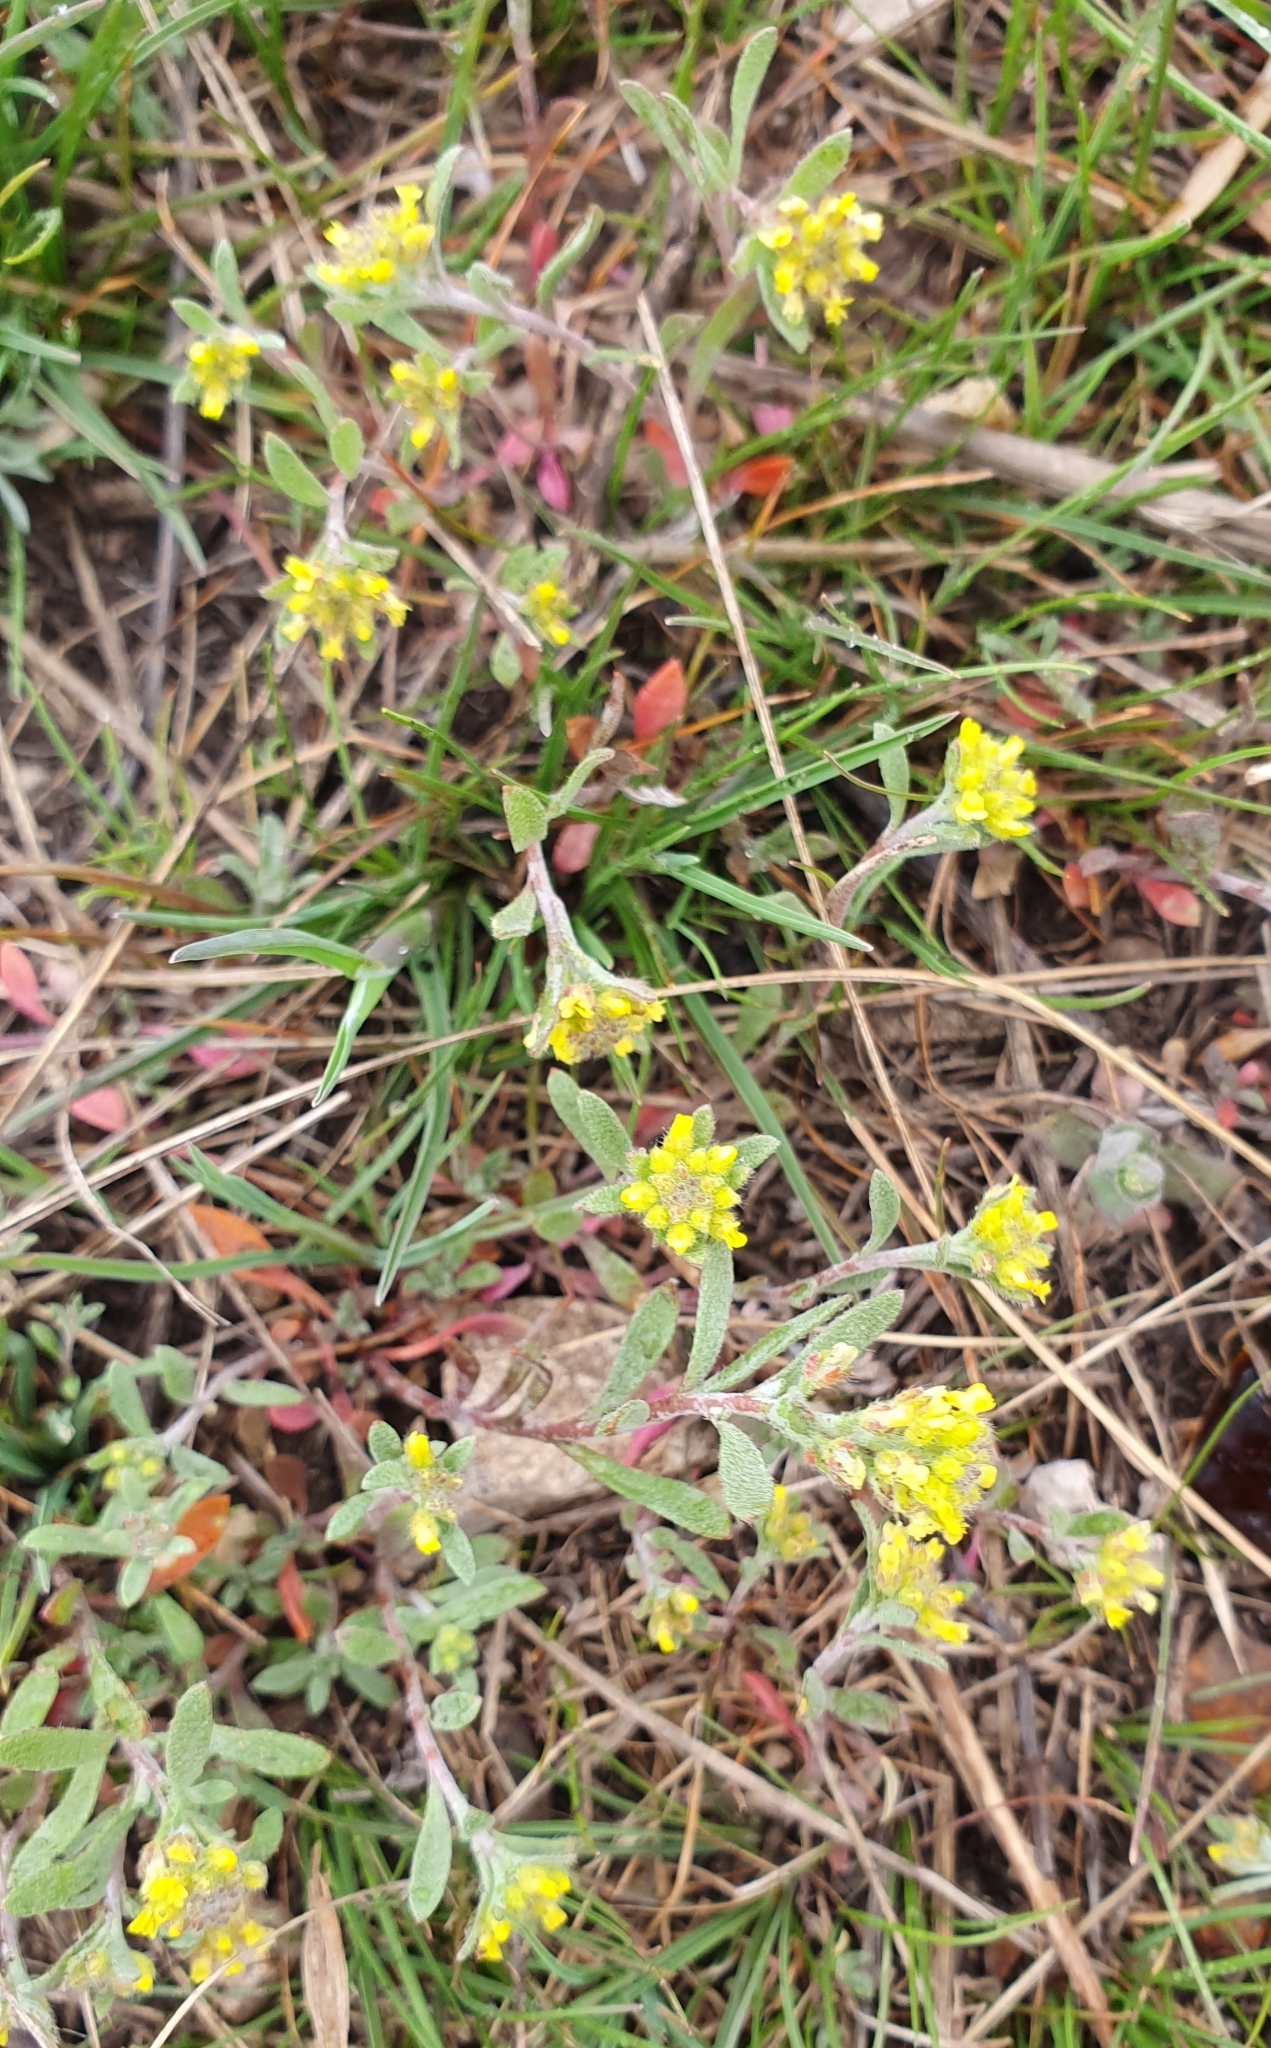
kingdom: Plantae
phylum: Tracheophyta
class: Magnoliopsida
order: Brassicales
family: Brassicaceae
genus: Alyssum
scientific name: Alyssum turkestanicum
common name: Desert alyssum
